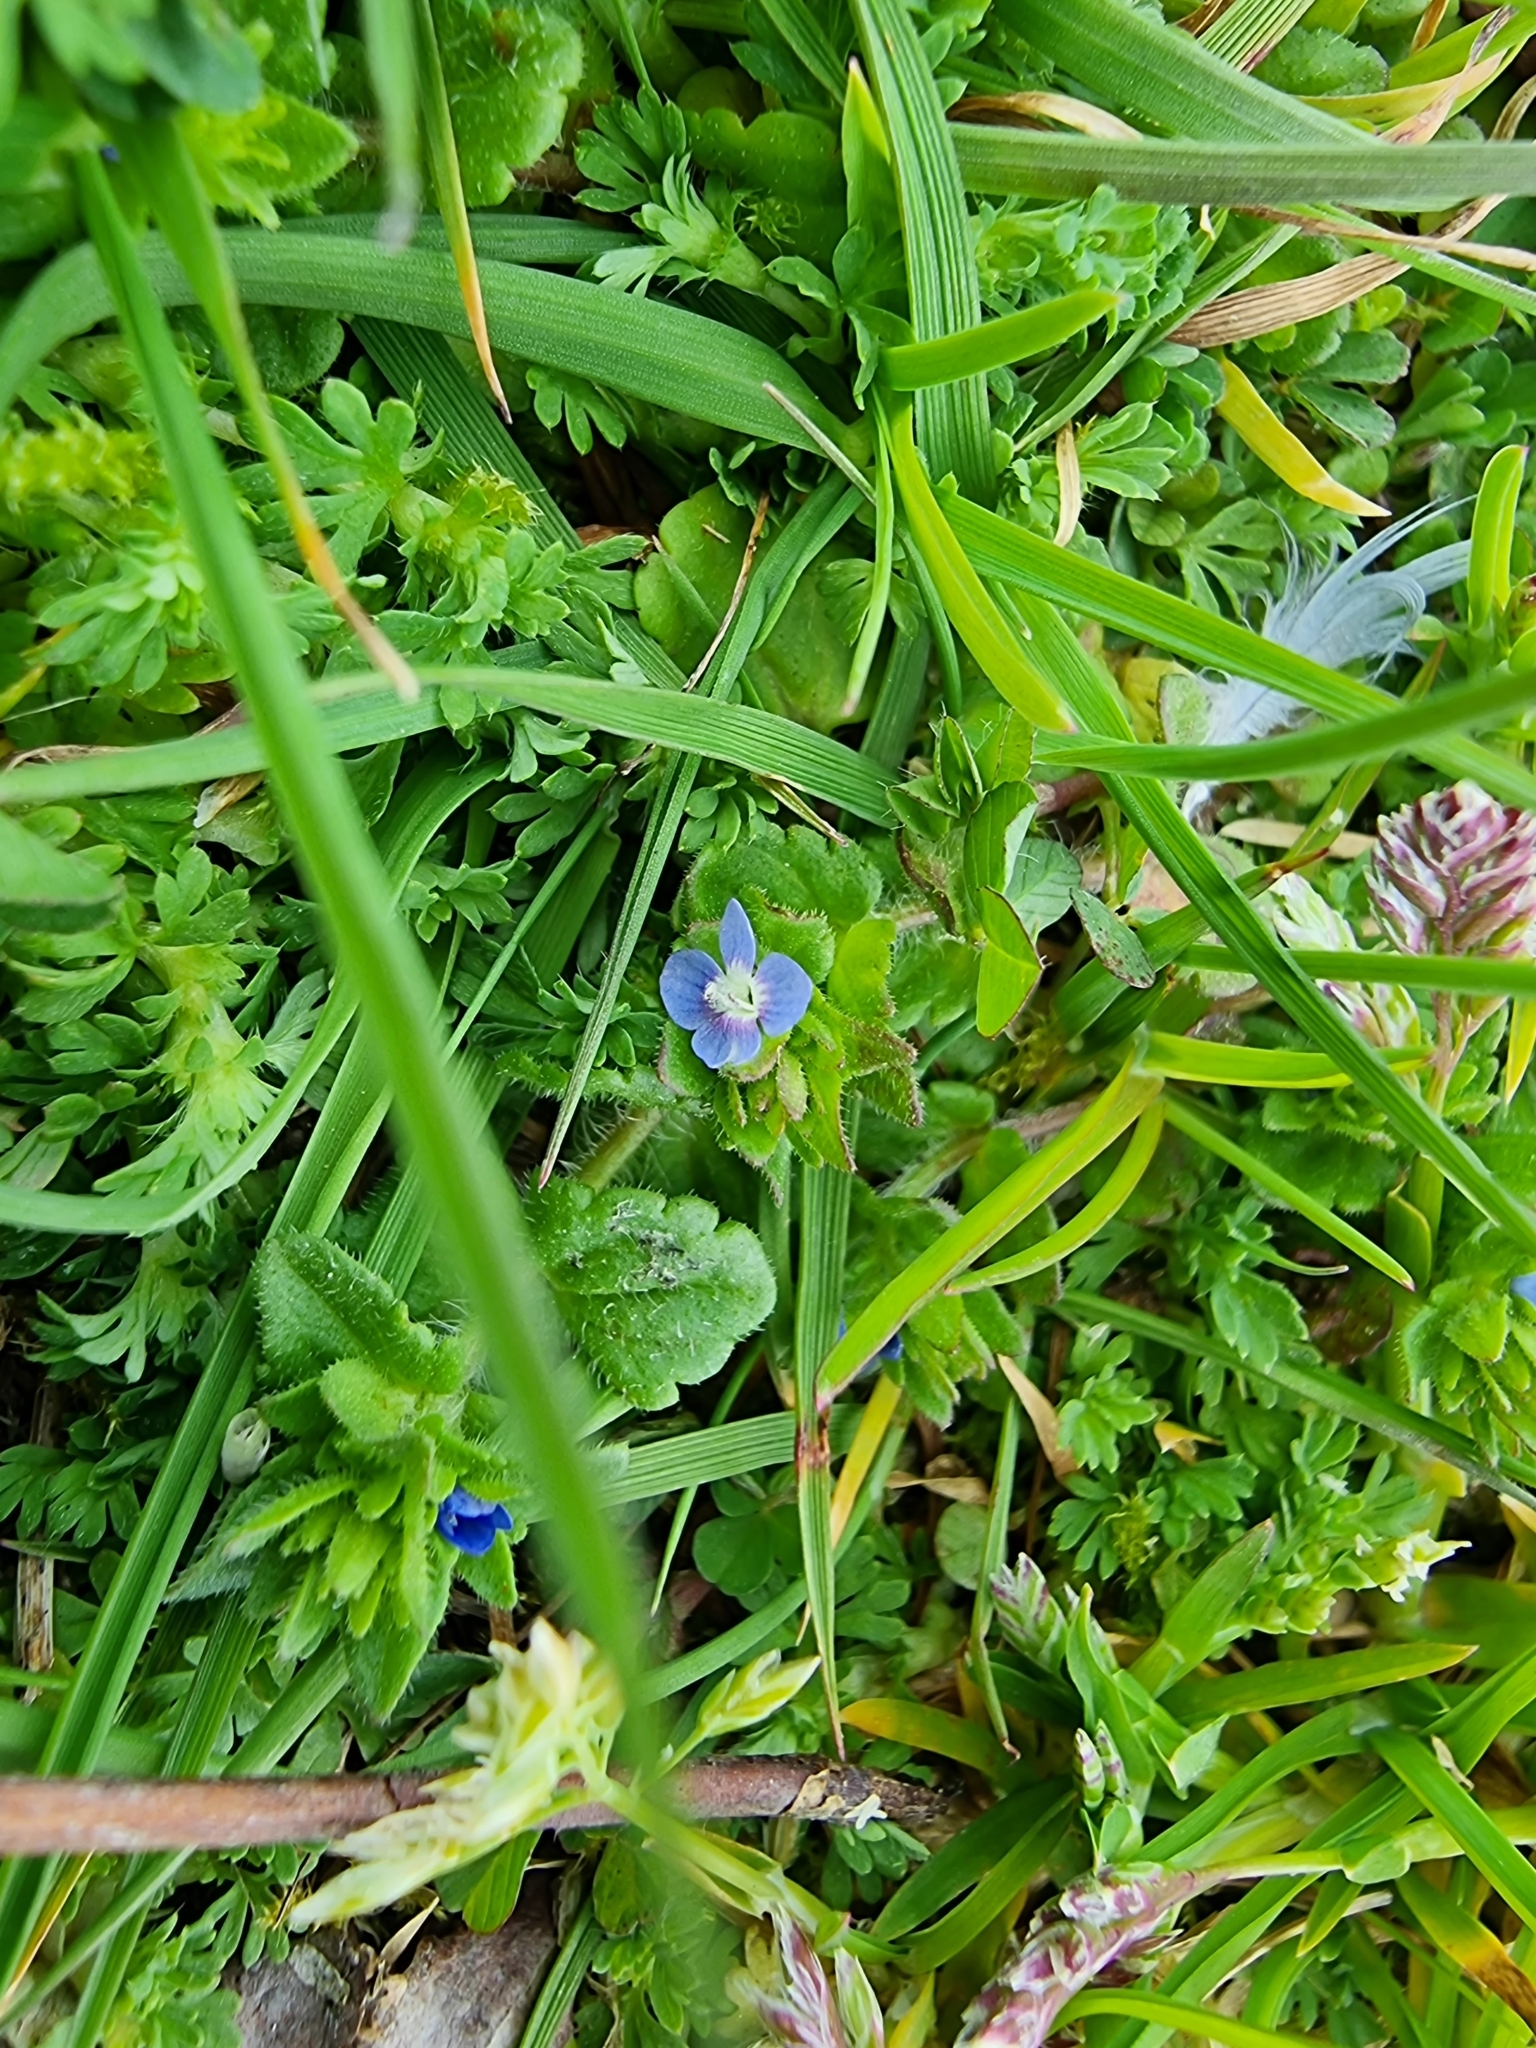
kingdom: Plantae
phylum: Tracheophyta
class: Magnoliopsida
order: Lamiales
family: Plantaginaceae
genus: Veronica
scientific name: Veronica arvensis
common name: Corn speedwell
